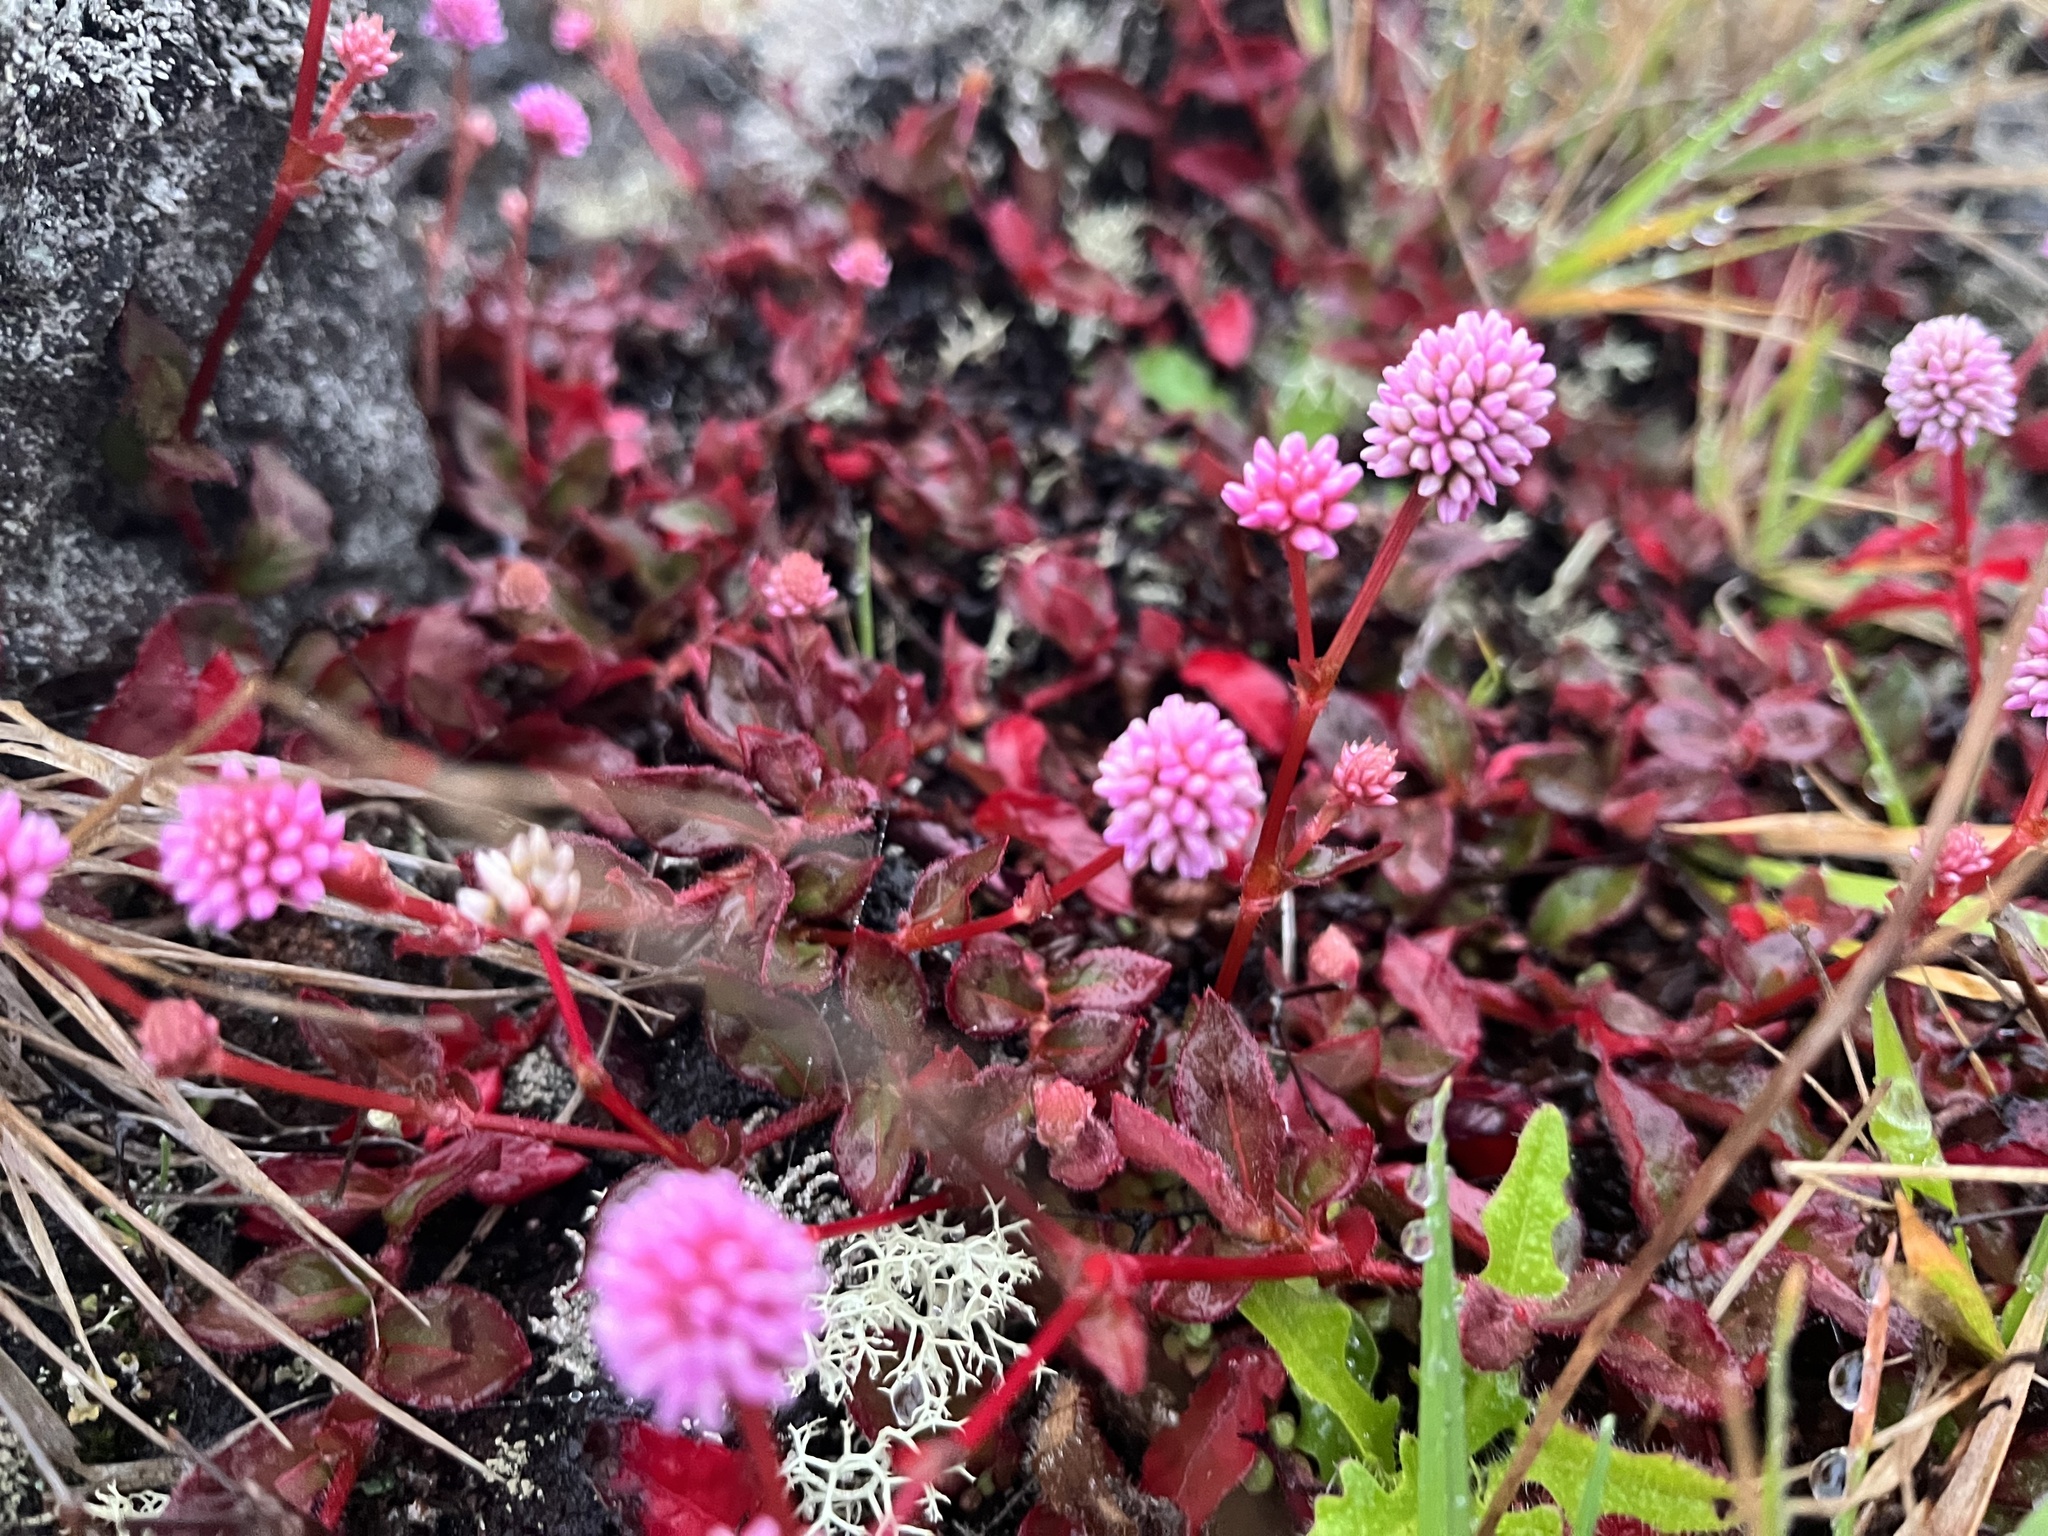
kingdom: Plantae
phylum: Tracheophyta
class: Magnoliopsida
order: Caryophyllales
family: Polygonaceae
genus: Persicaria
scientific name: Persicaria capitata
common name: Pinkhead smartweed
